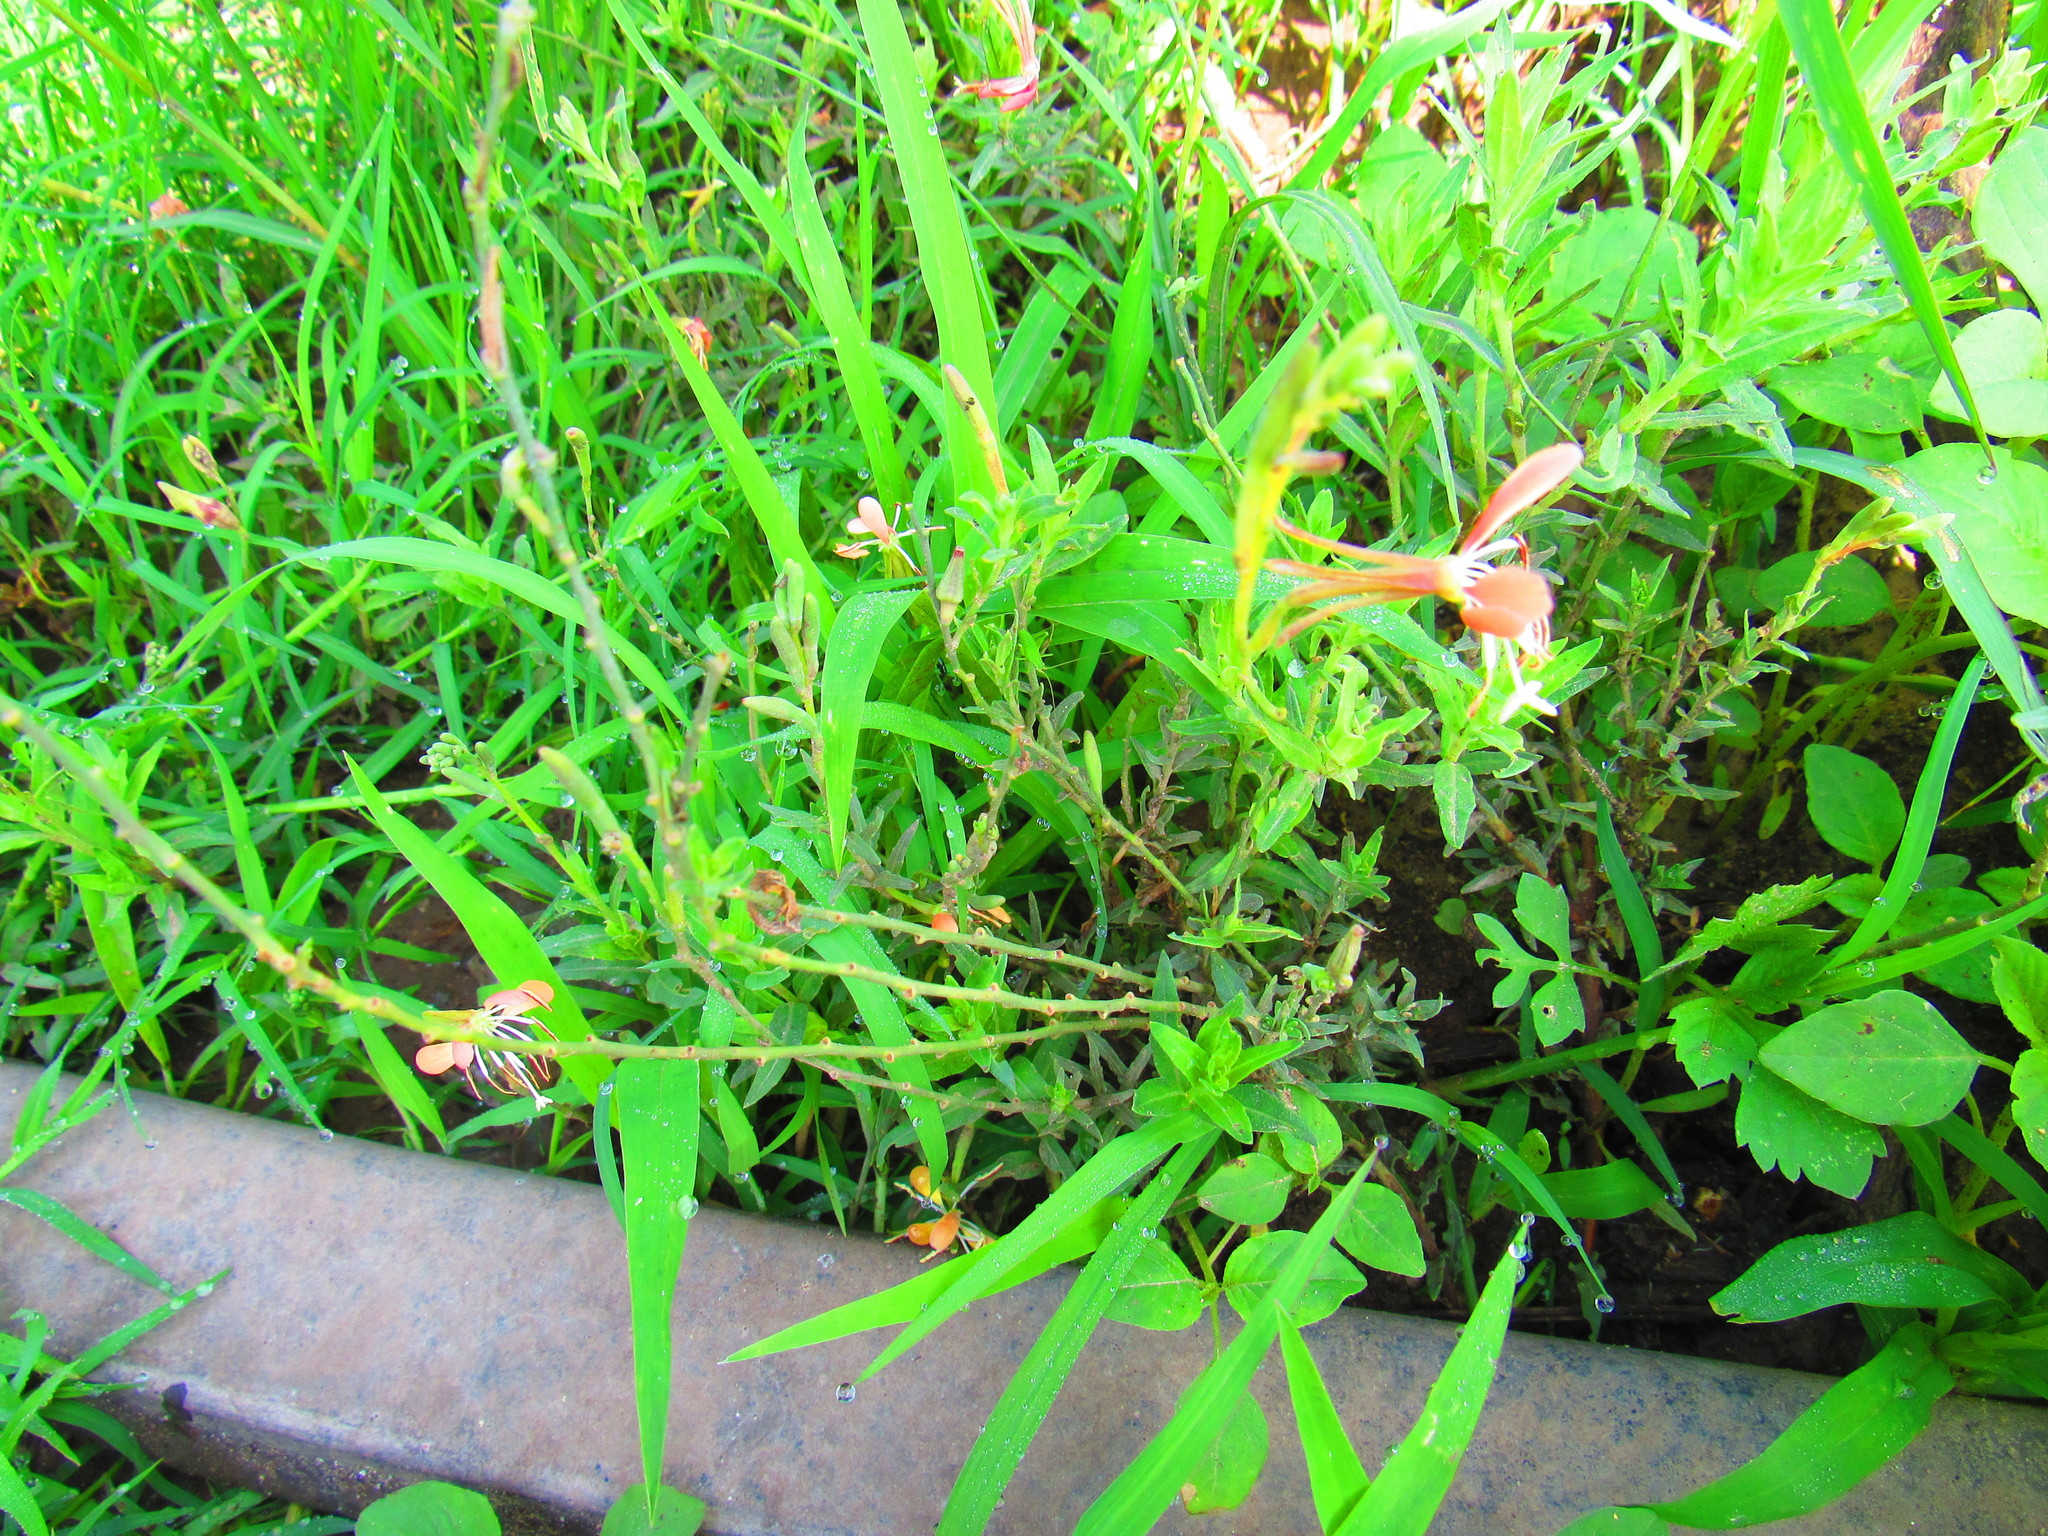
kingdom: Plantae
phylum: Tracheophyta
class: Magnoliopsida
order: Myrtales
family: Onagraceae
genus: Oenothera
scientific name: Oenothera suffrutescens
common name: Scarlet beeblossom
